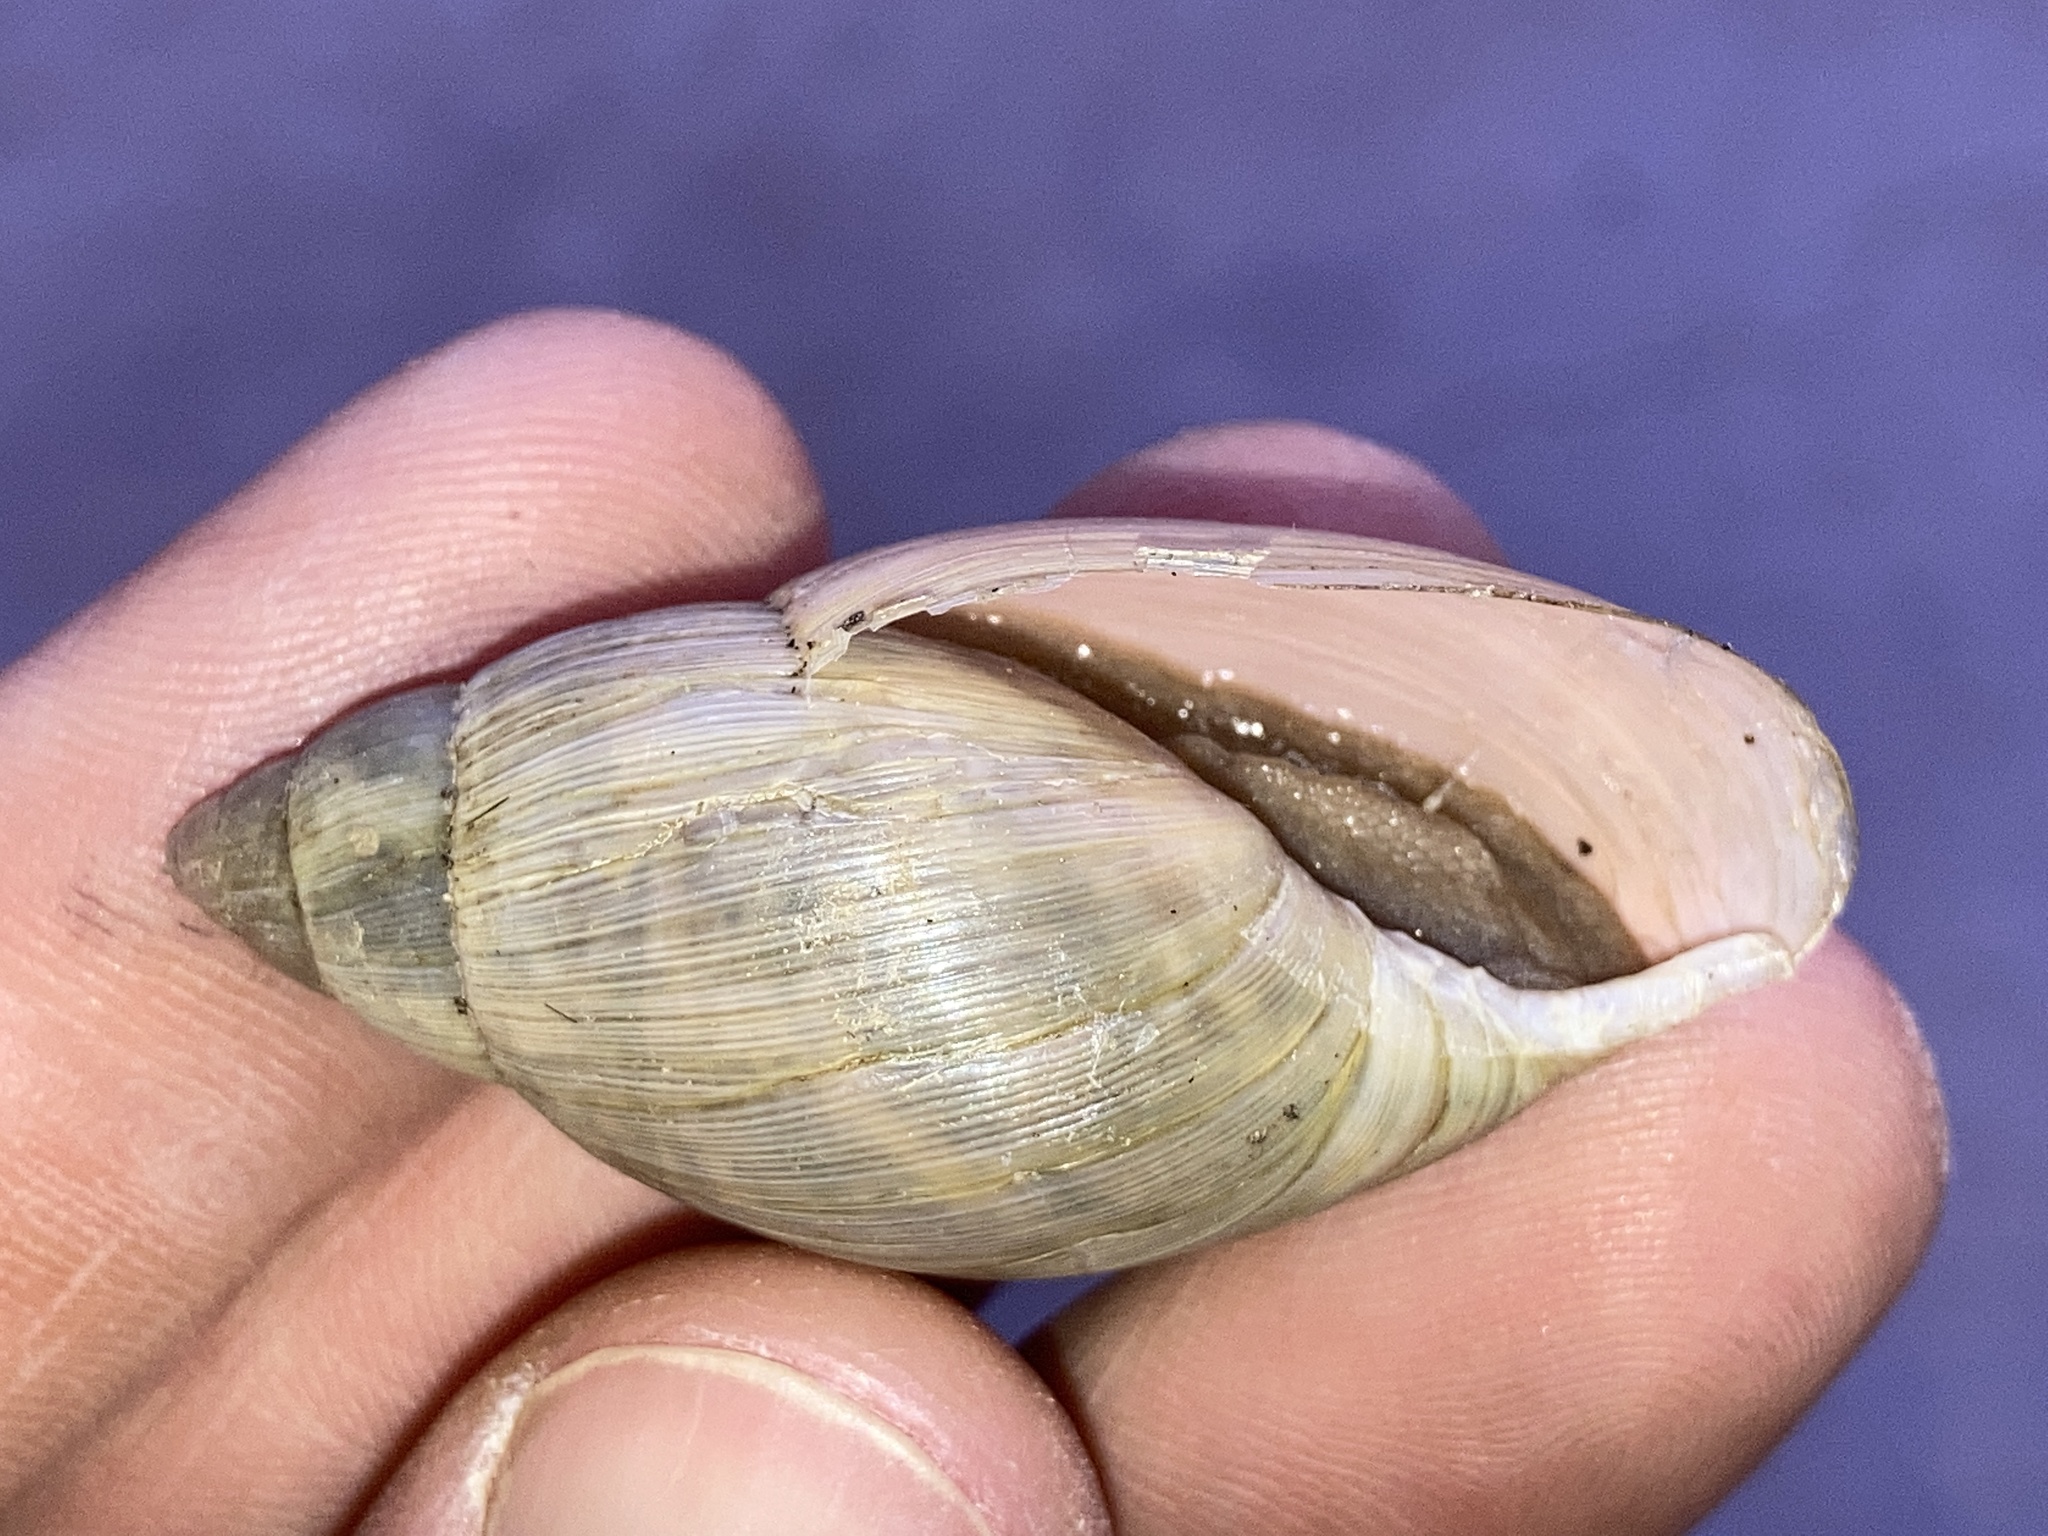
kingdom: Animalia
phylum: Mollusca
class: Gastropoda
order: Stylommatophora
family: Spiraxidae
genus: Euglandina
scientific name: Euglandina rosea
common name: Rosy wolfsnail
